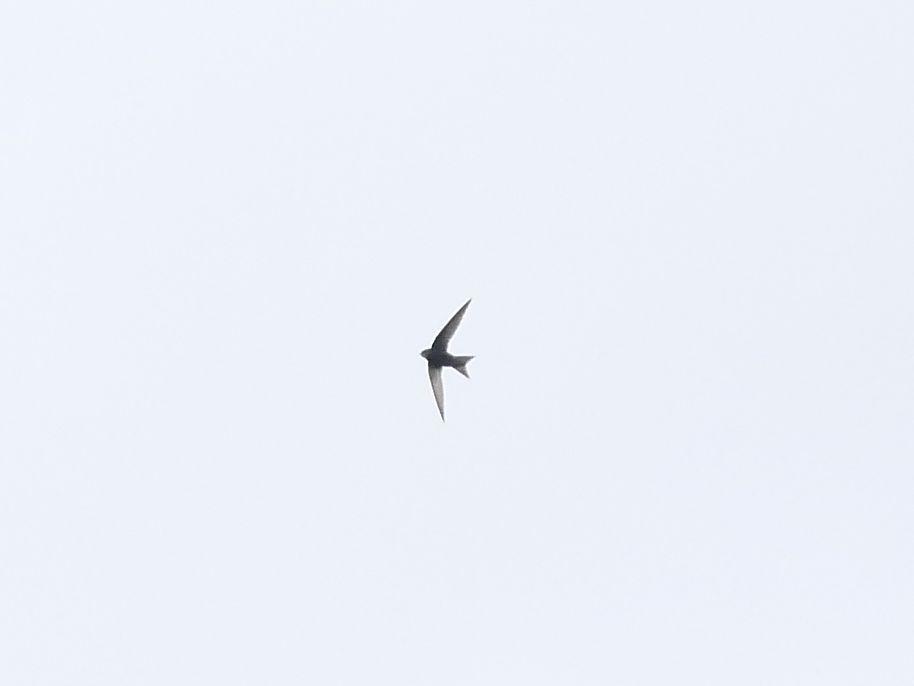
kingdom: Animalia
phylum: Chordata
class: Aves
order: Apodiformes
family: Apodidae
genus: Apus
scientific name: Apus apus
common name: Common swift
